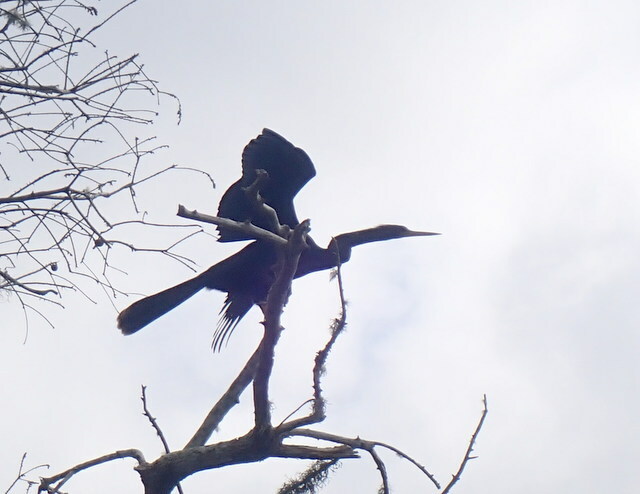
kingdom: Animalia
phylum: Chordata
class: Aves
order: Suliformes
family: Anhingidae
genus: Anhinga
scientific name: Anhinga anhinga
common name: Anhinga
